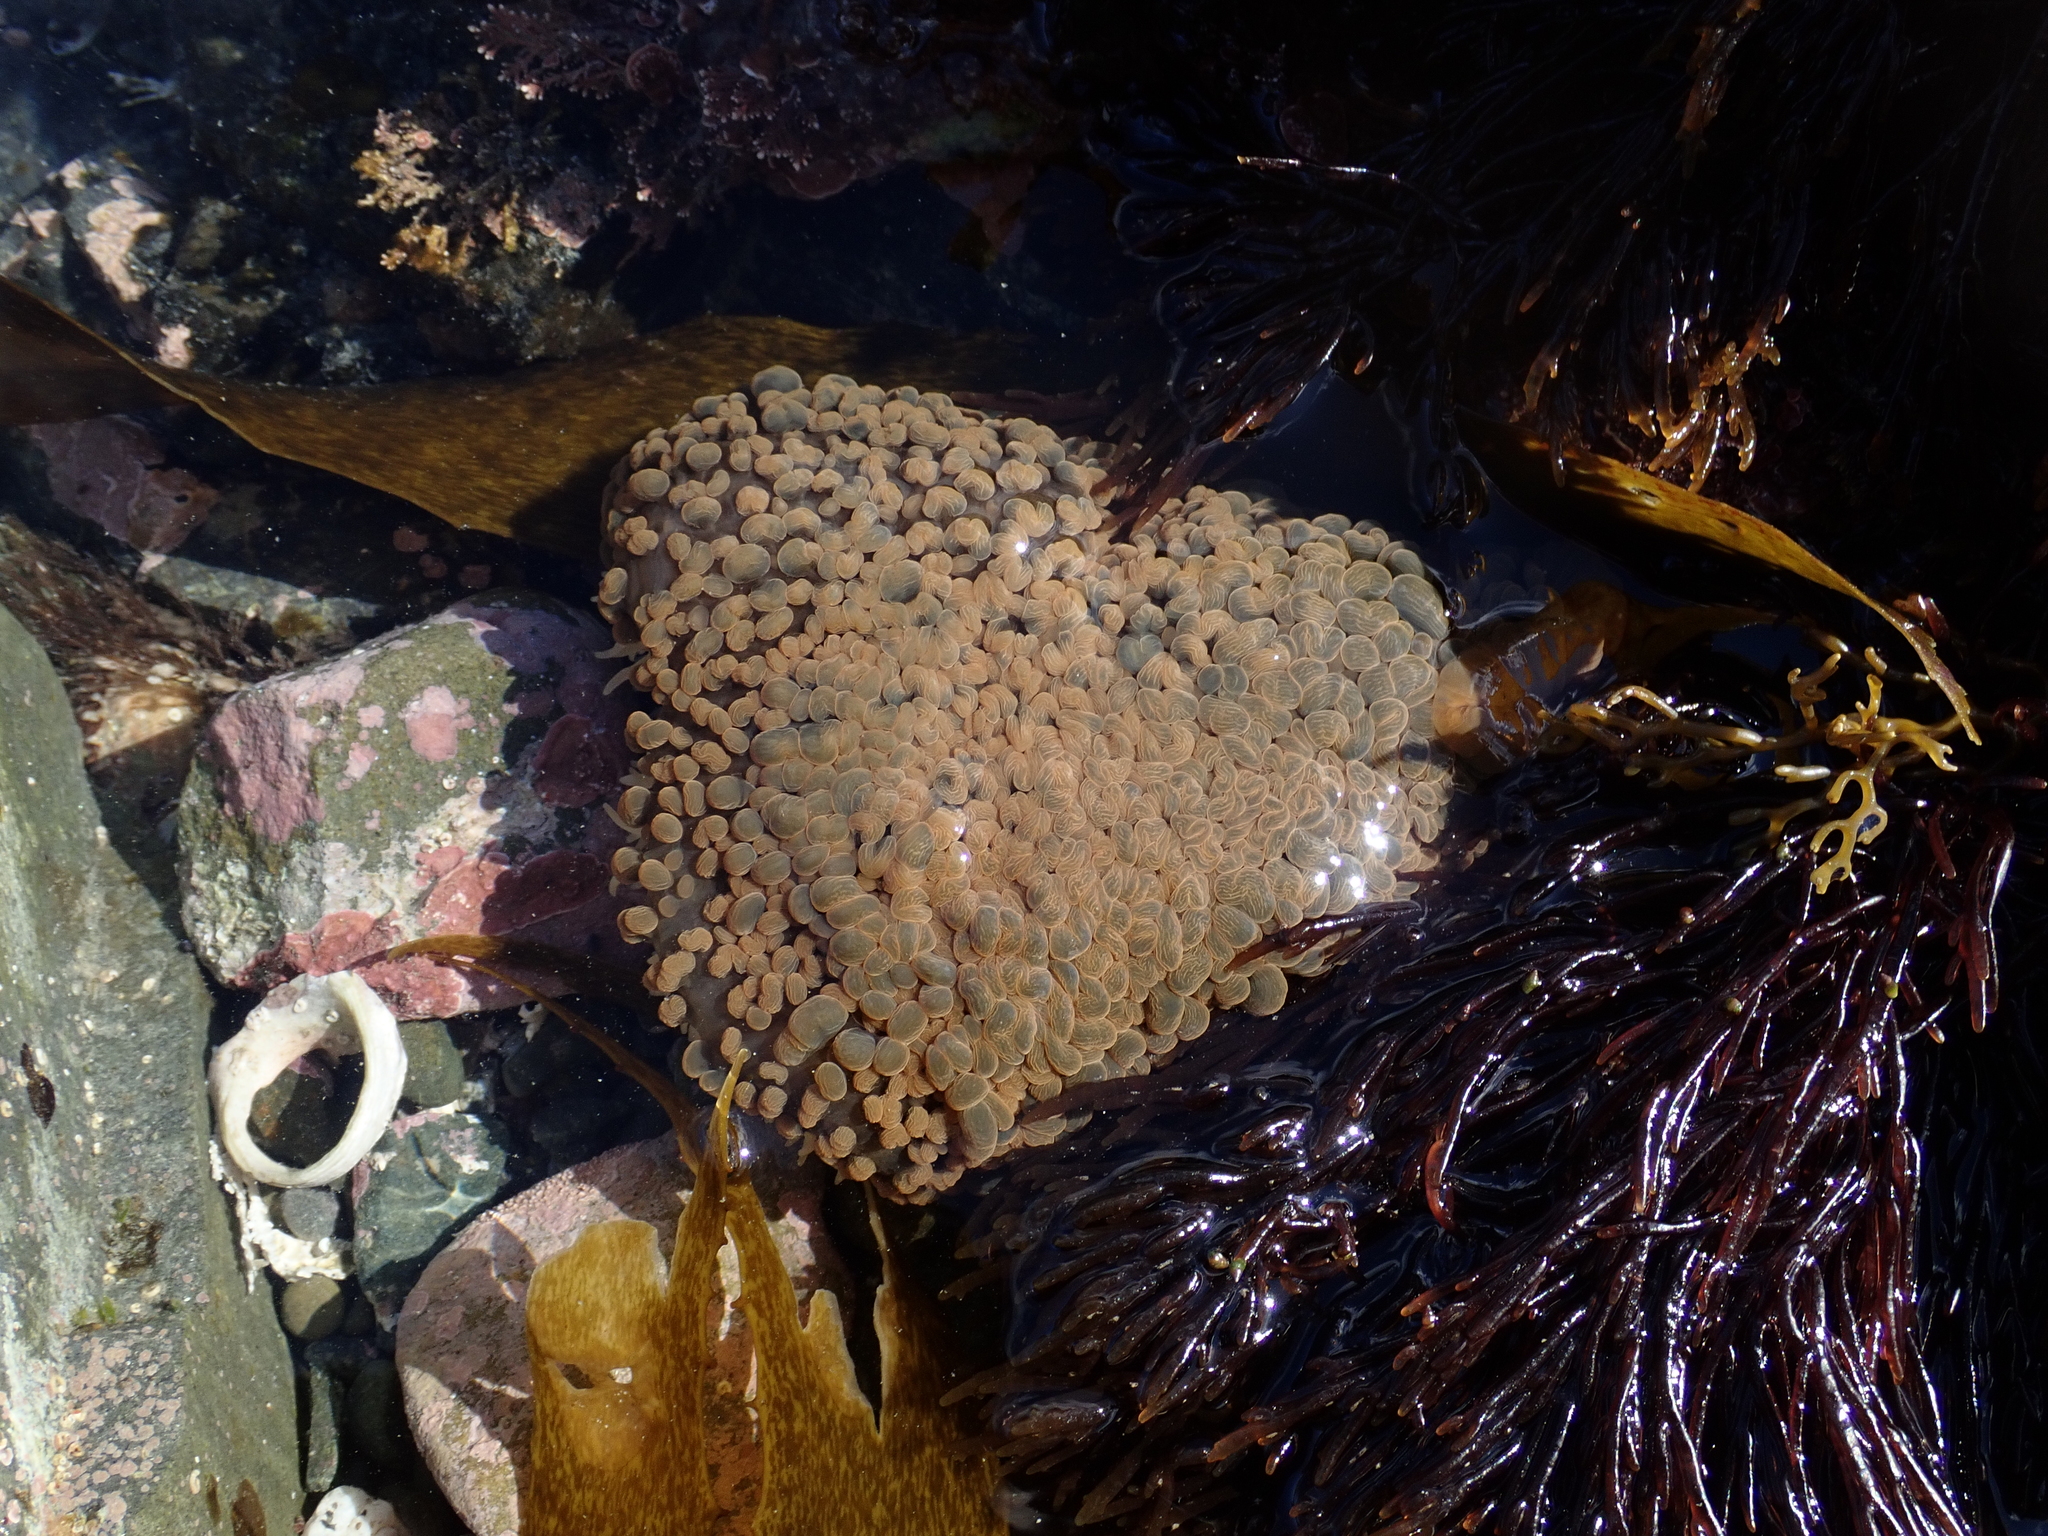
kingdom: Animalia
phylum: Cnidaria
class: Anthozoa
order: Actiniaria
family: Actiniidae
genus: Phlyctenactis
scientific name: Phlyctenactis tuberculosa
